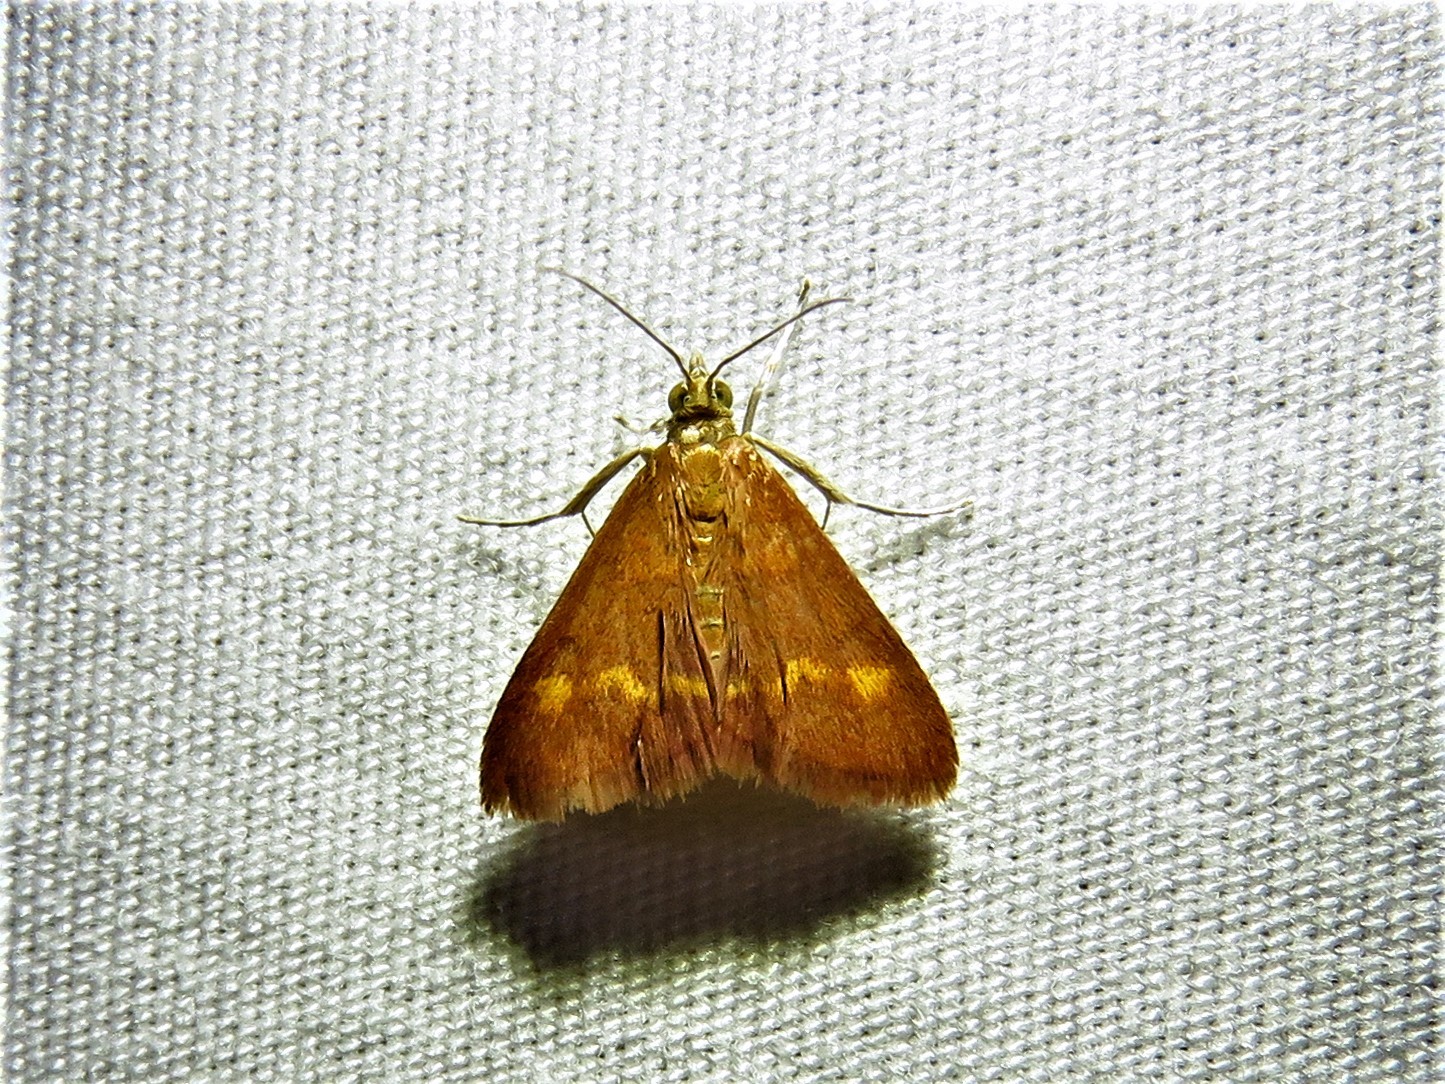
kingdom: Animalia
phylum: Arthropoda
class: Insecta
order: Lepidoptera
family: Crambidae
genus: Pyrausta
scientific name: Pyrausta pseuderosnealis
